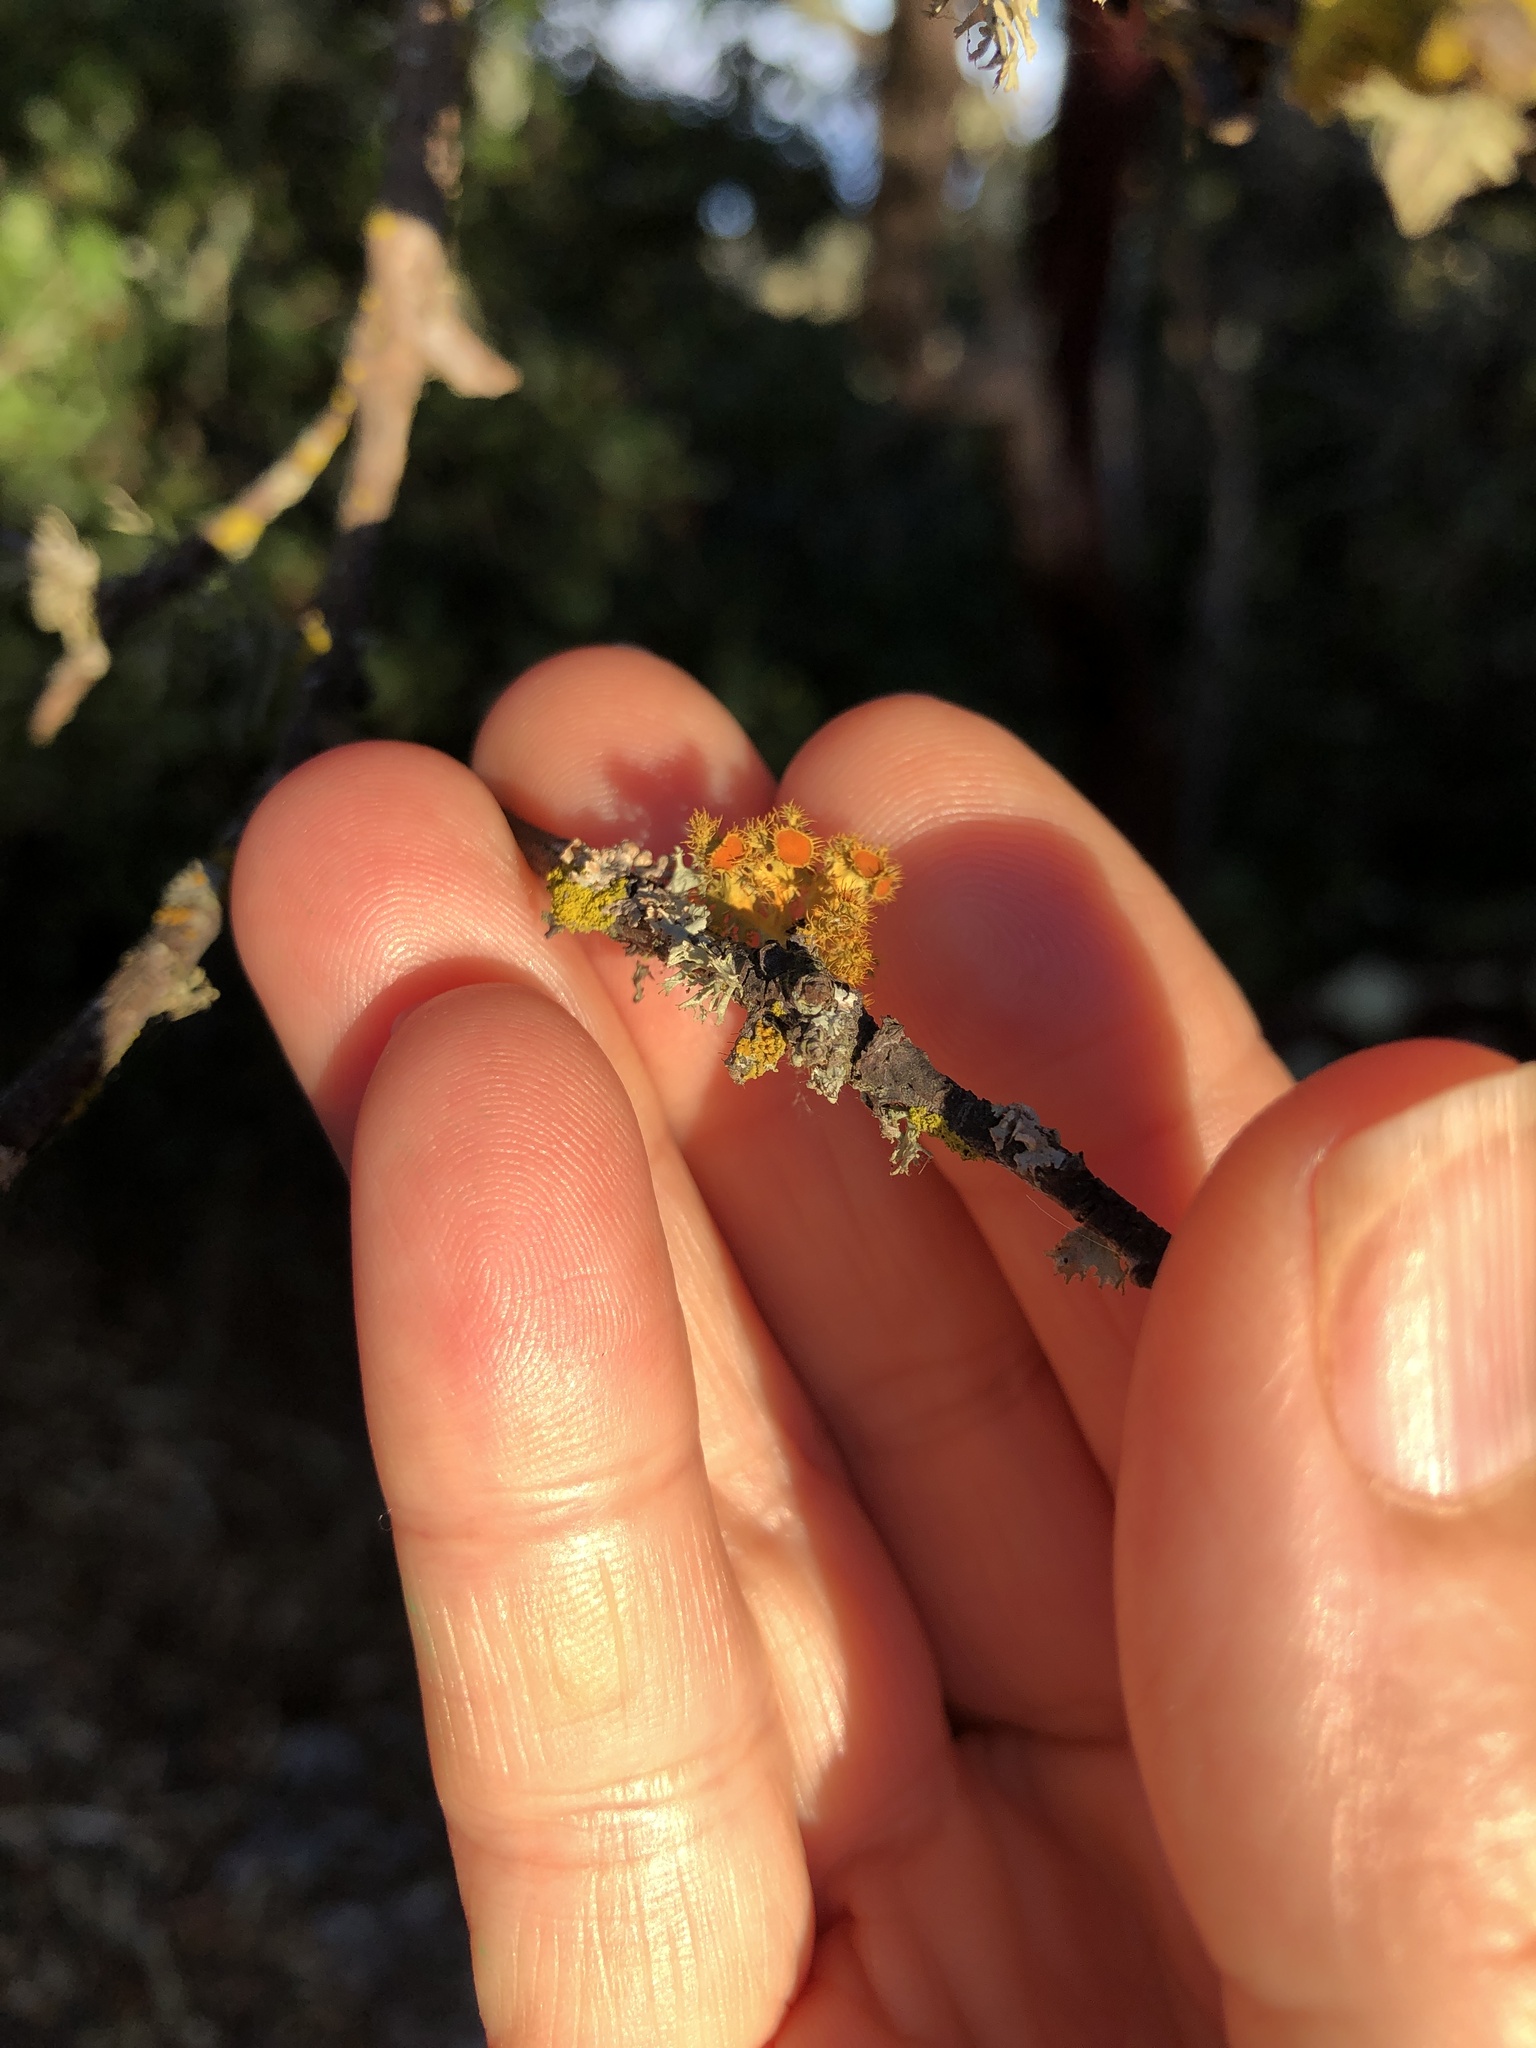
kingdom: Fungi
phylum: Ascomycota
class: Lecanoromycetes
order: Teloschistales
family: Teloschistaceae
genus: Niorma
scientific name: Niorma chrysophthalma
